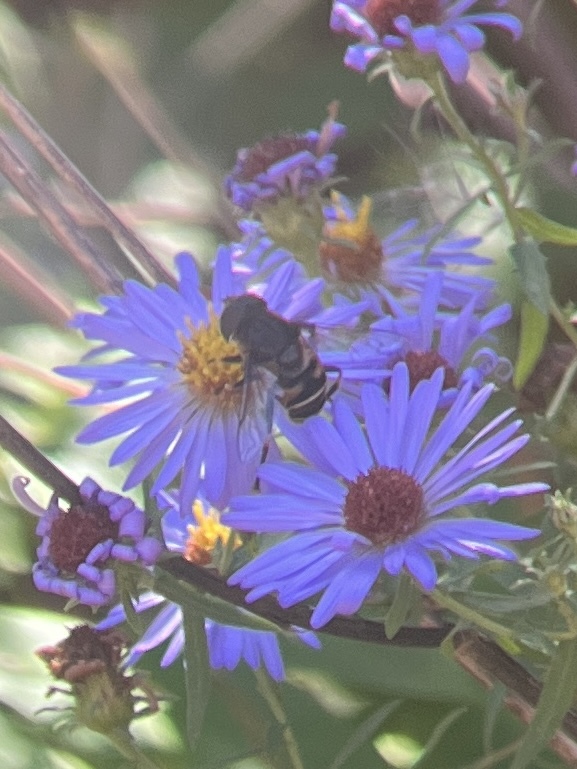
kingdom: Animalia
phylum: Arthropoda
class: Insecta
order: Diptera
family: Syrphidae
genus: Eristalis
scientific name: Eristalis dimidiata
